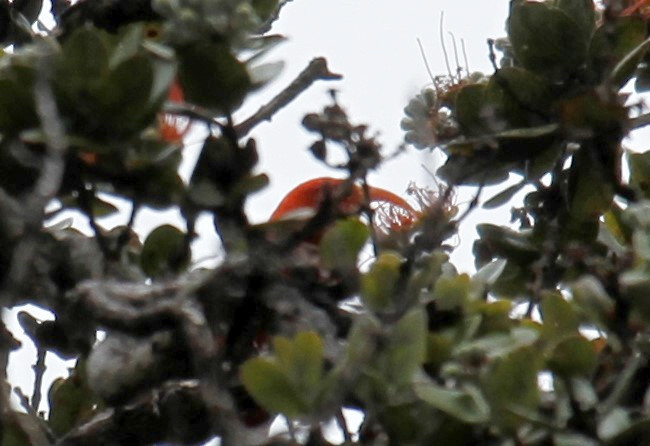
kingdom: Animalia
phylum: Chordata
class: Aves
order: Passeriformes
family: Fringillidae
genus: Vestiaria
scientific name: Vestiaria coccinea
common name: Iiwi
